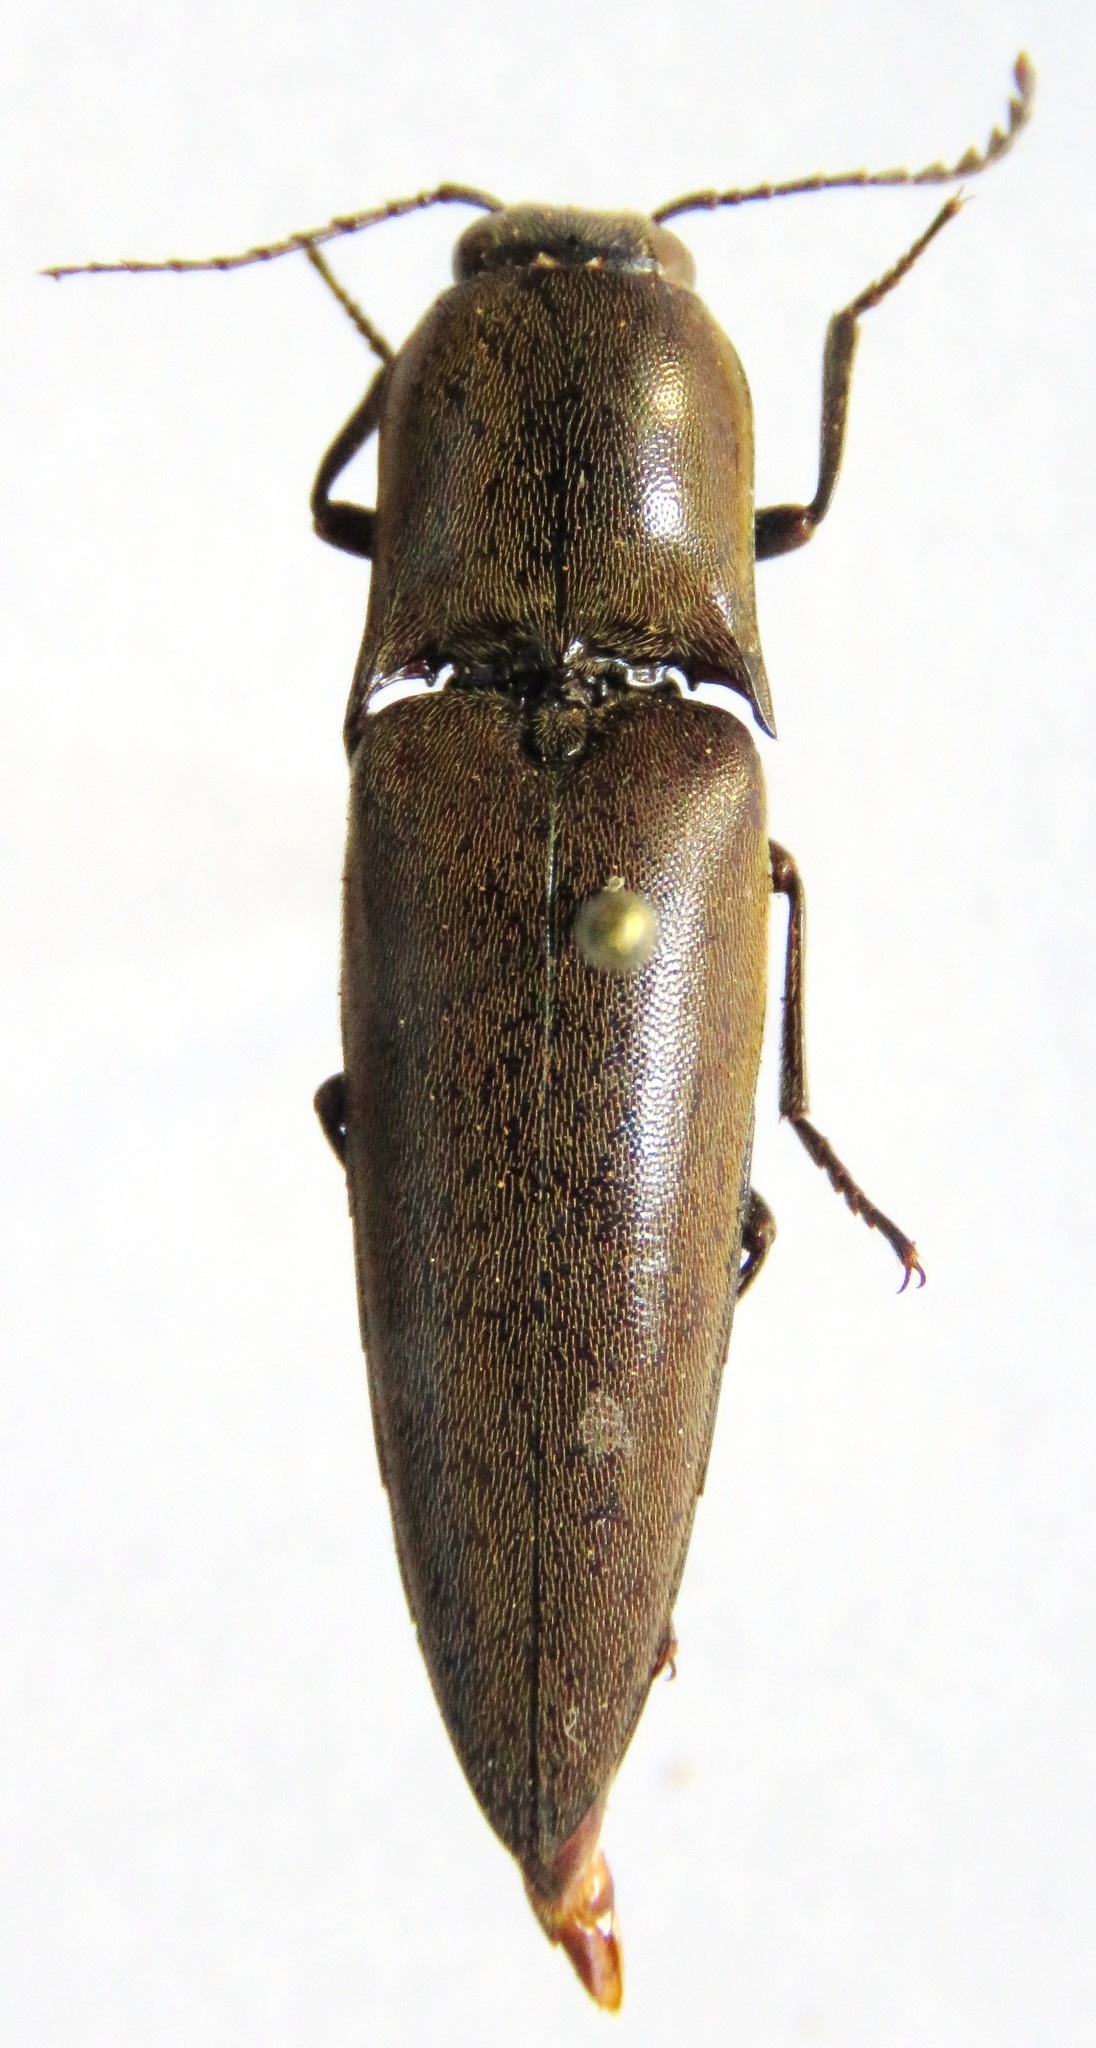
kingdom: Animalia
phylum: Arthropoda
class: Insecta
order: Coleoptera
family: Elateridae
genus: Orthostethus
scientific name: Orthostethus infuscatus
